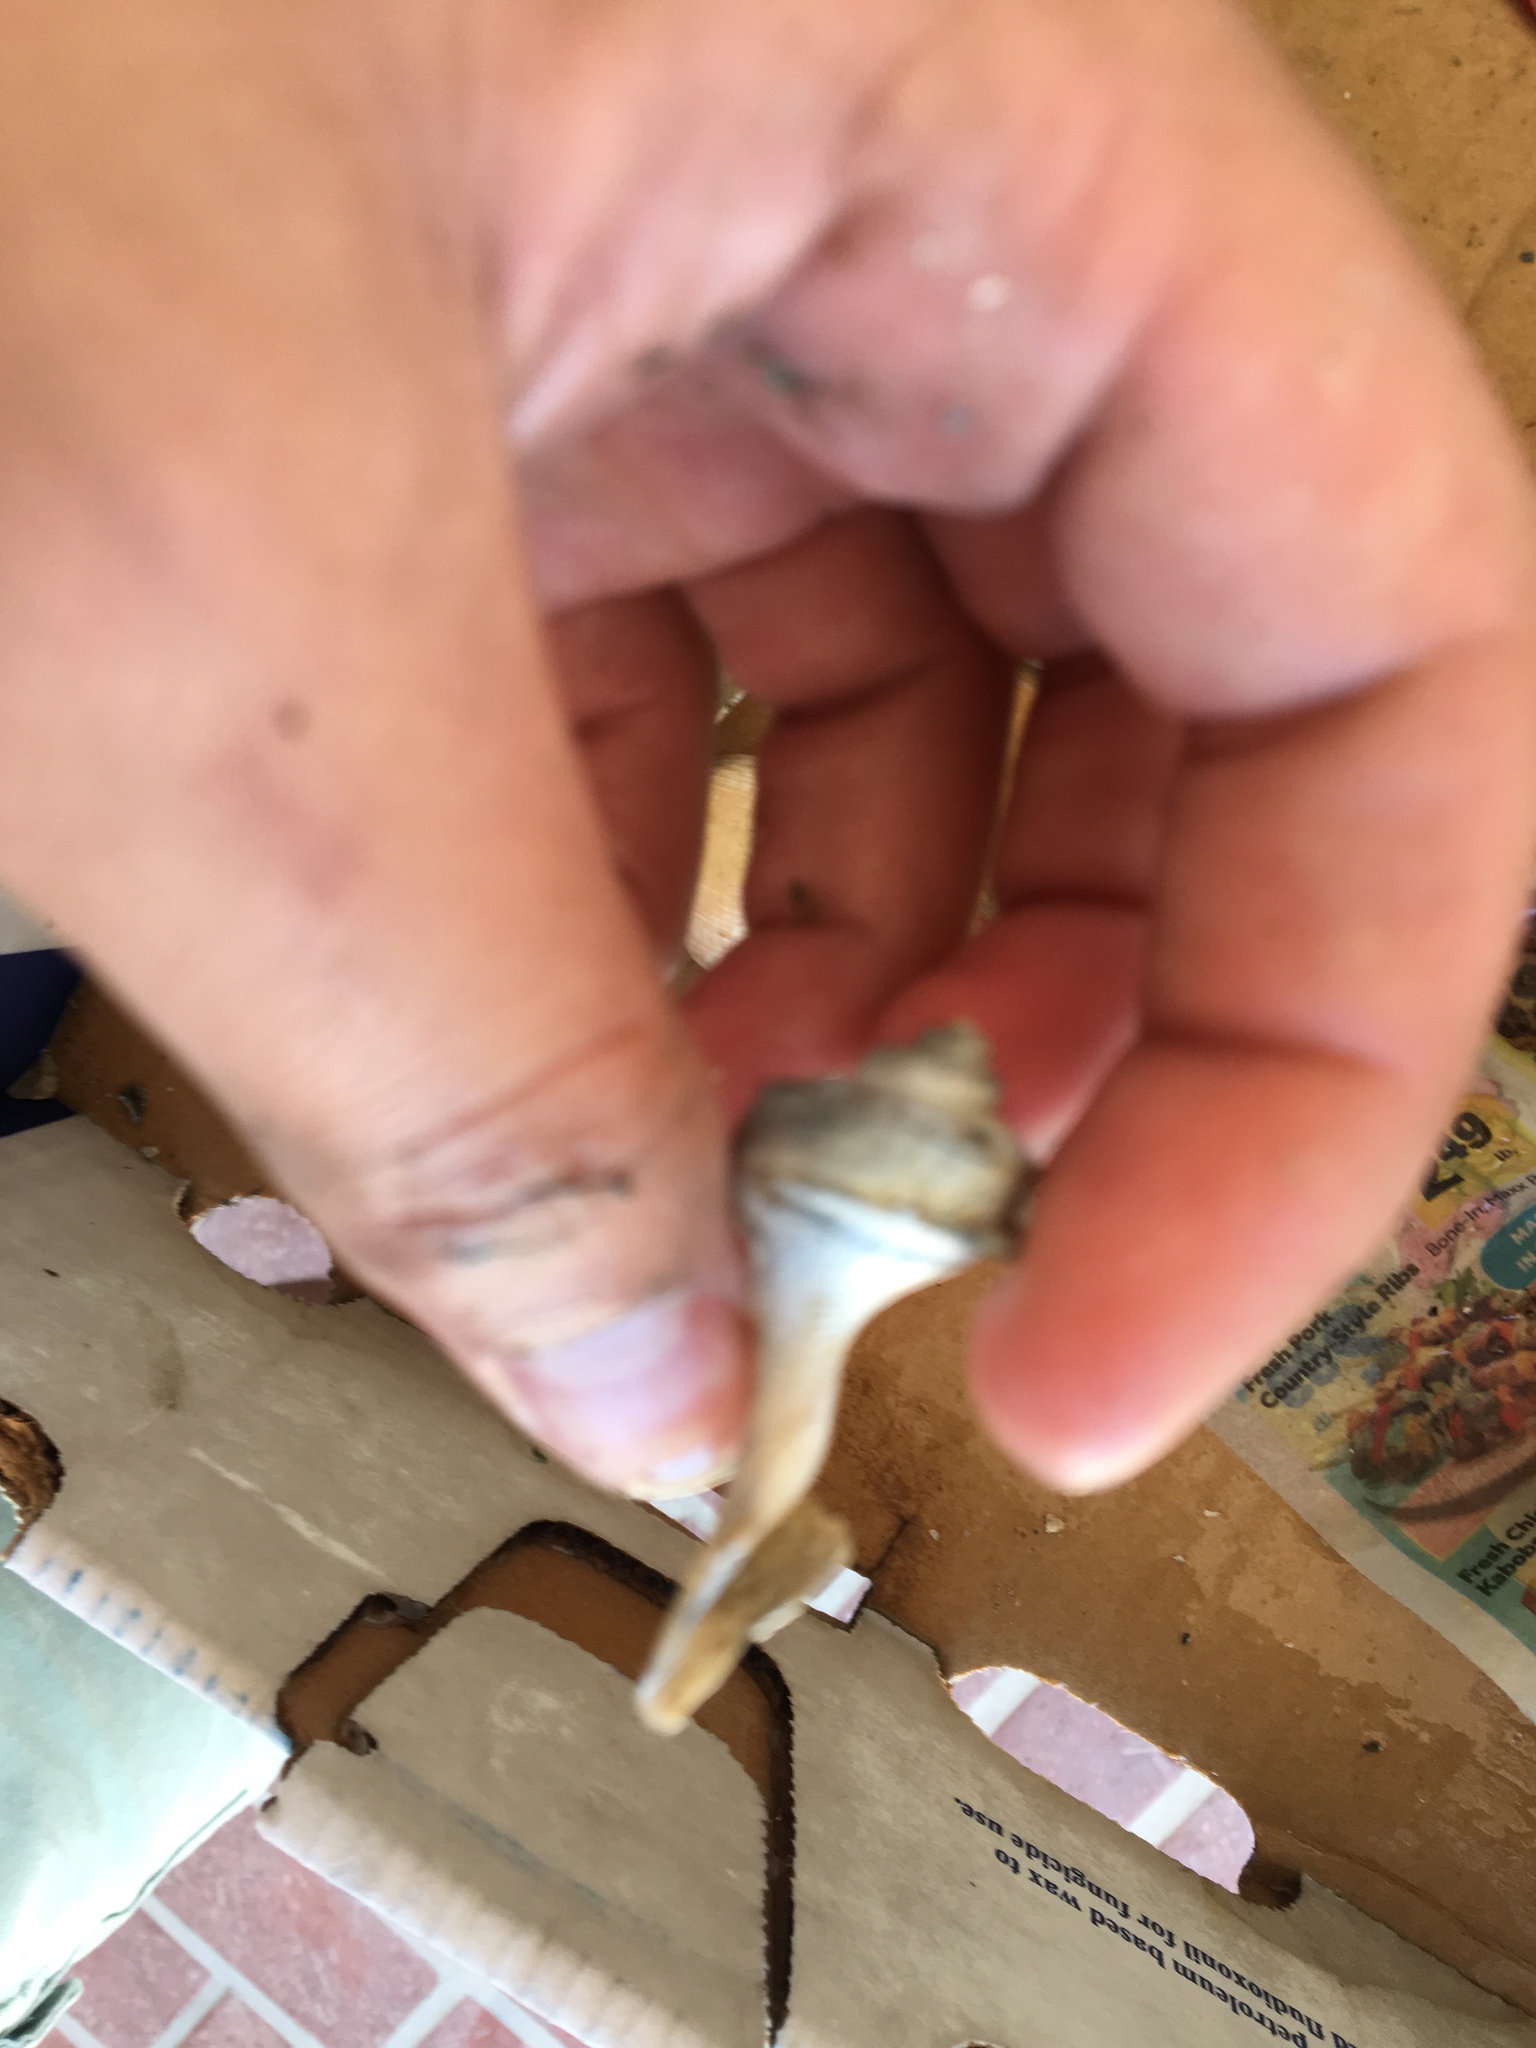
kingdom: Animalia
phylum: Mollusca
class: Gastropoda
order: Neogastropoda
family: Busyconidae
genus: Busycotypus
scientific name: Busycotypus canaliculatus
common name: Channeled whelk
